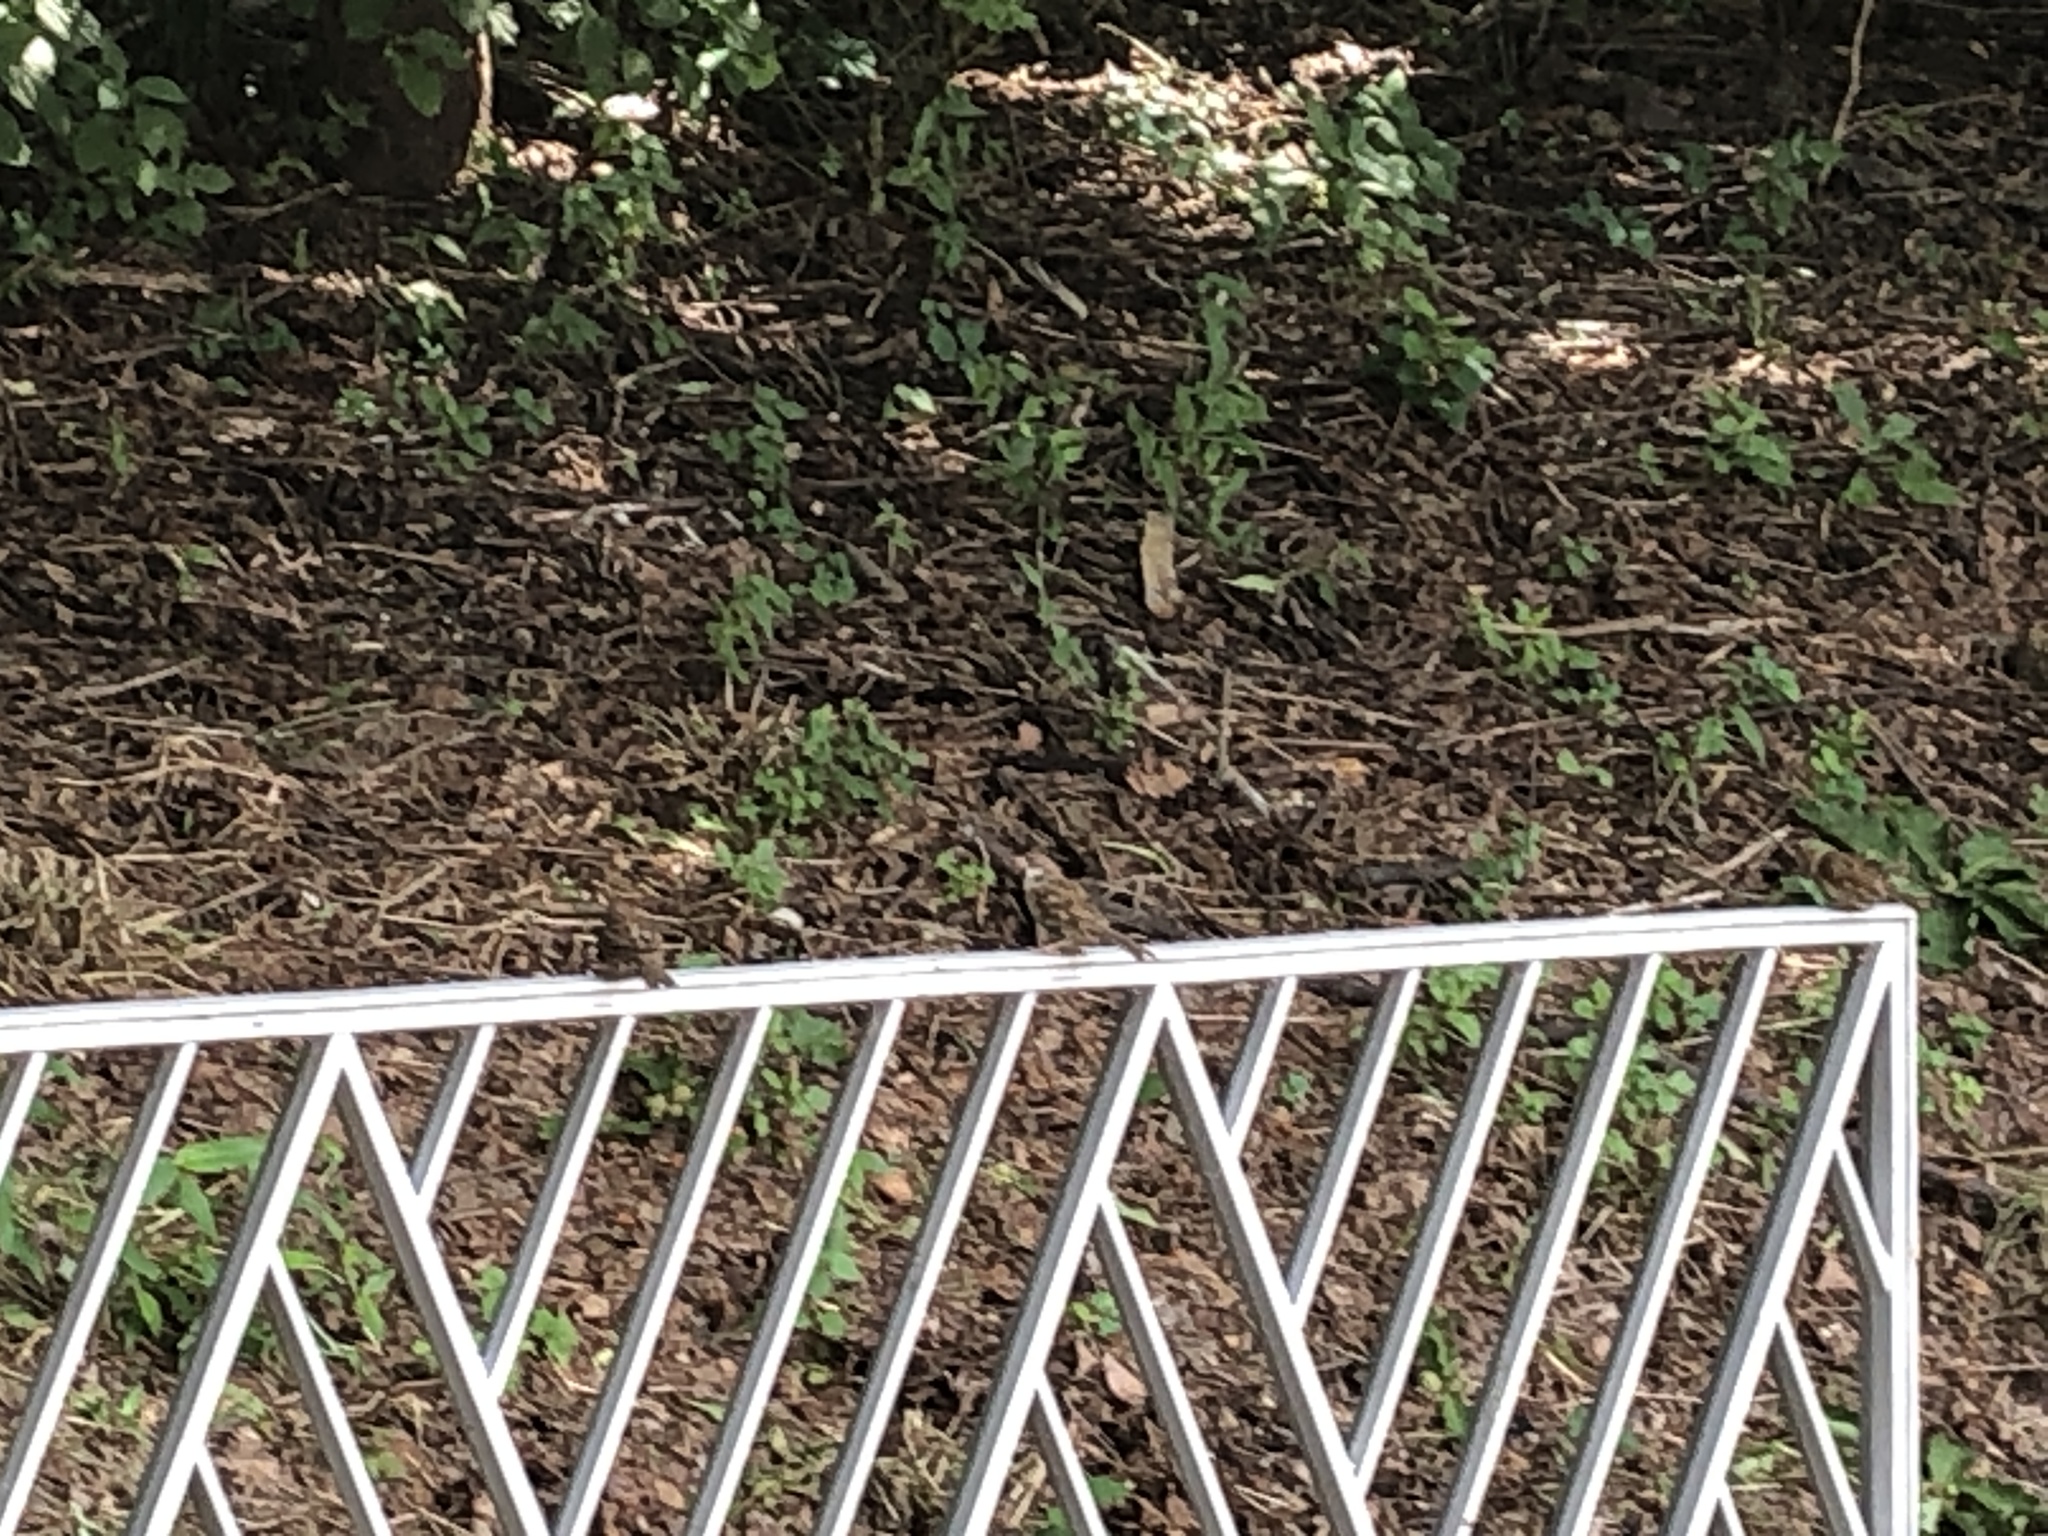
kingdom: Animalia
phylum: Chordata
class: Aves
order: Passeriformes
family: Passeridae
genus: Passer
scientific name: Passer montanus
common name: Eurasian tree sparrow
